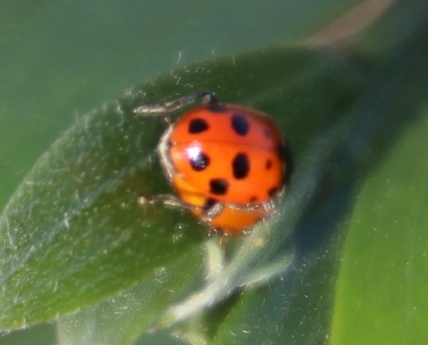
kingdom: Animalia
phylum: Arthropoda
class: Insecta
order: Coleoptera
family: Coccinellidae
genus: Hippodamia
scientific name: Hippodamia variegata
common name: Ladybird beetle
